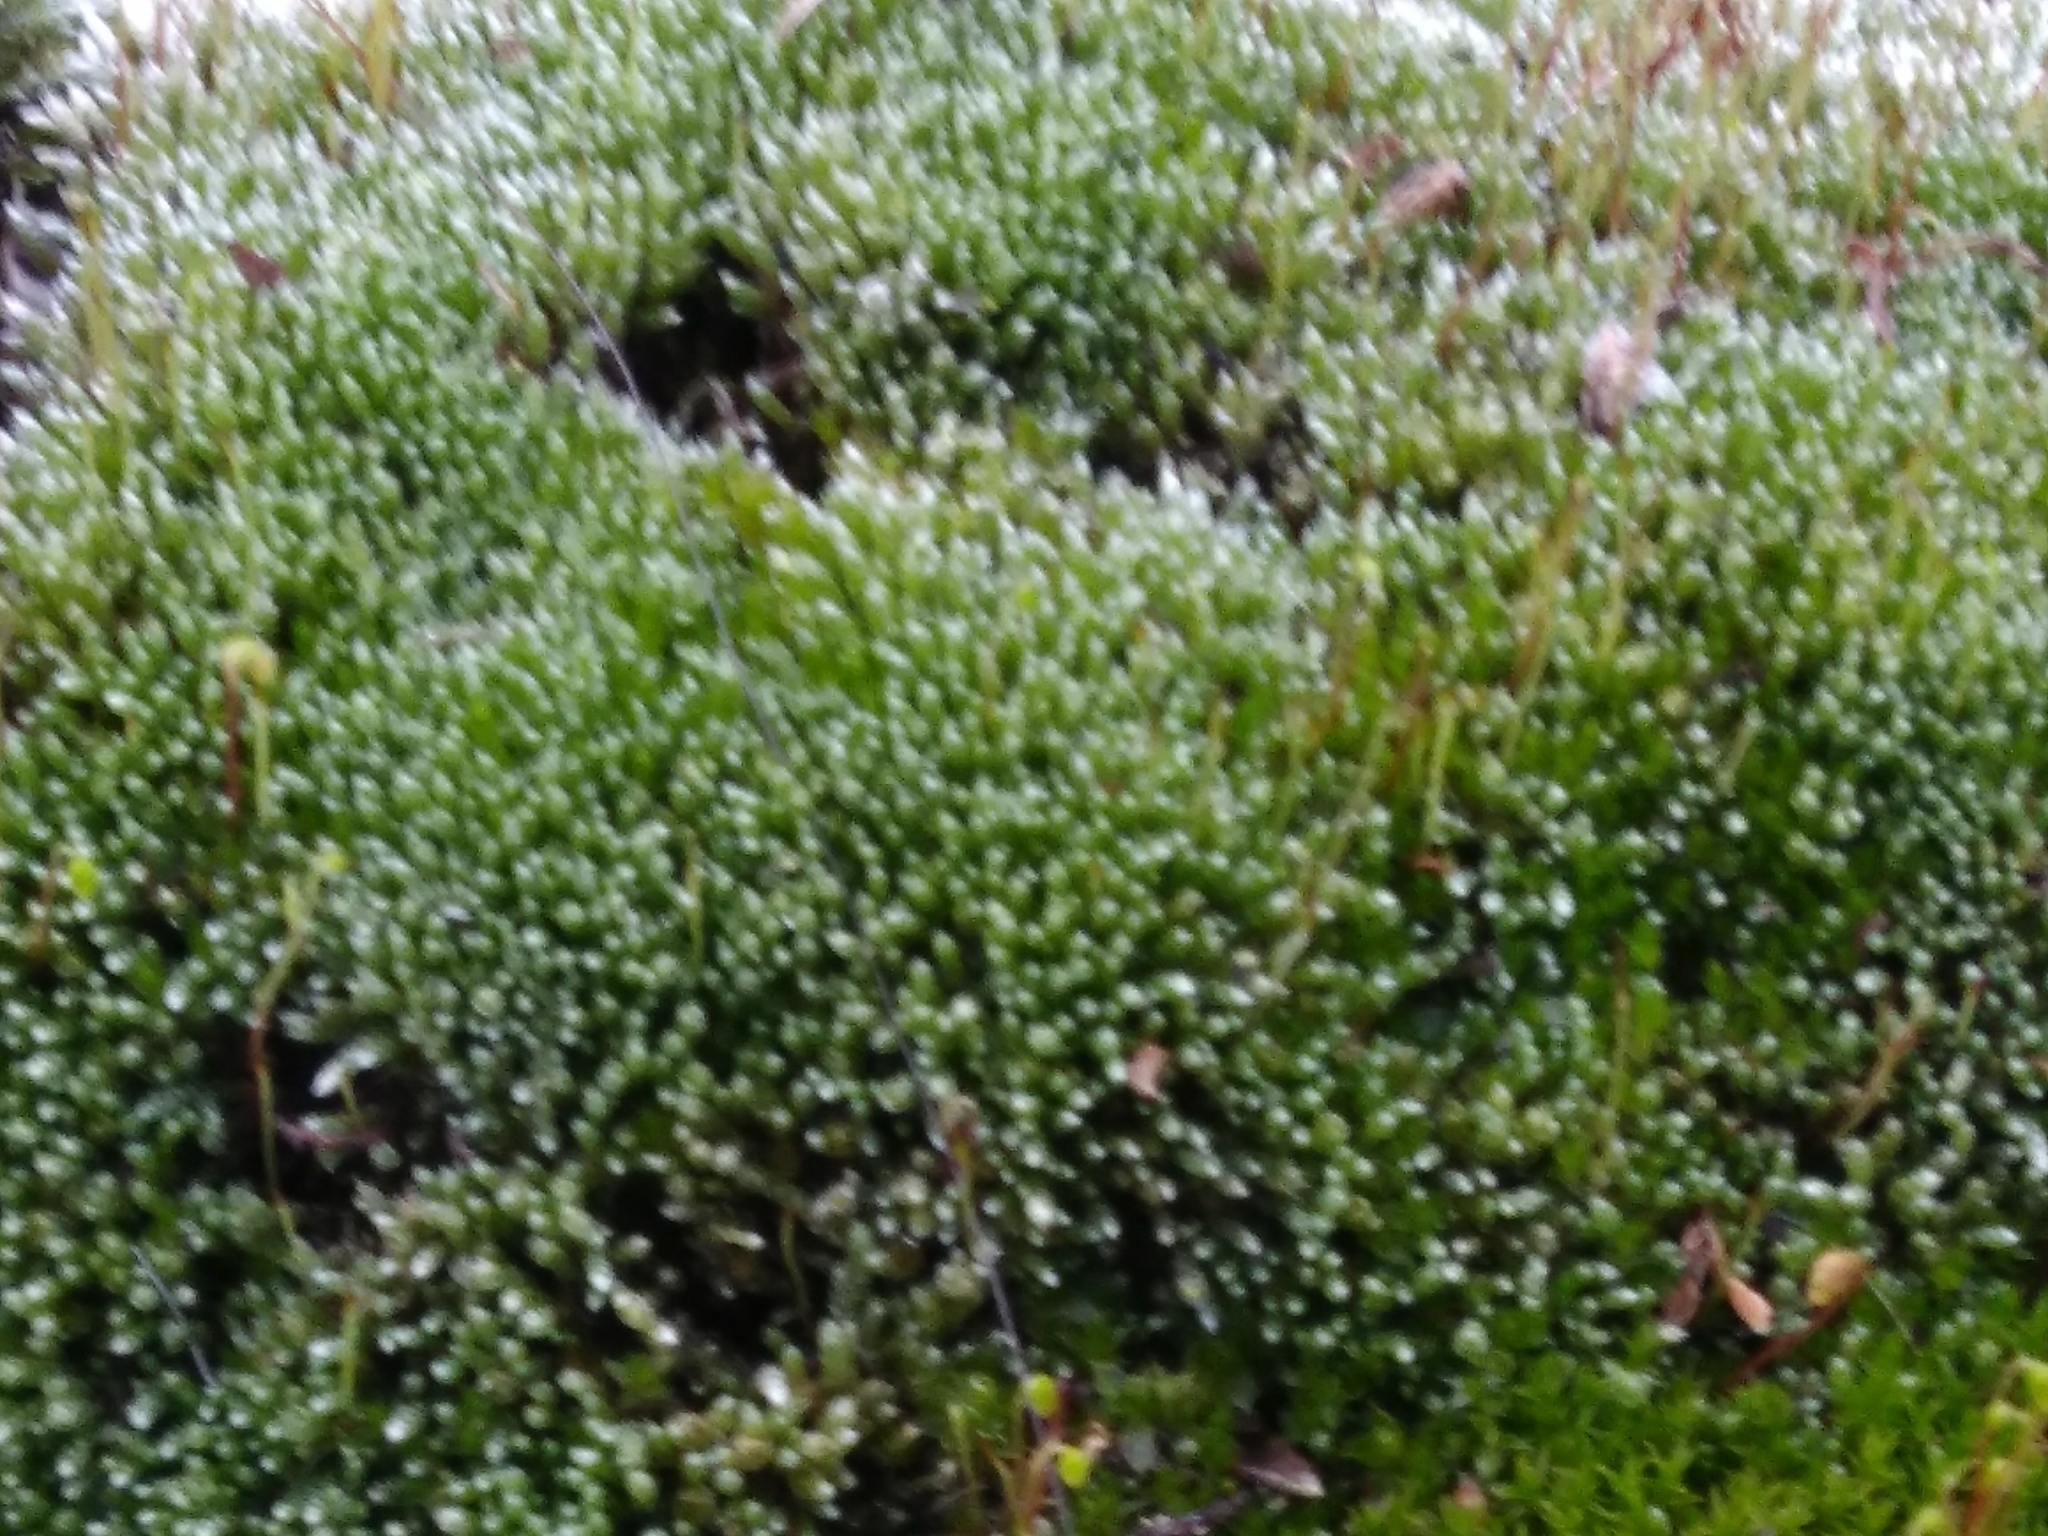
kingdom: Plantae
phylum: Bryophyta
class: Bryopsida
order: Bryales
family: Bryaceae
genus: Bryum
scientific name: Bryum argenteum
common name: Silver-moss
